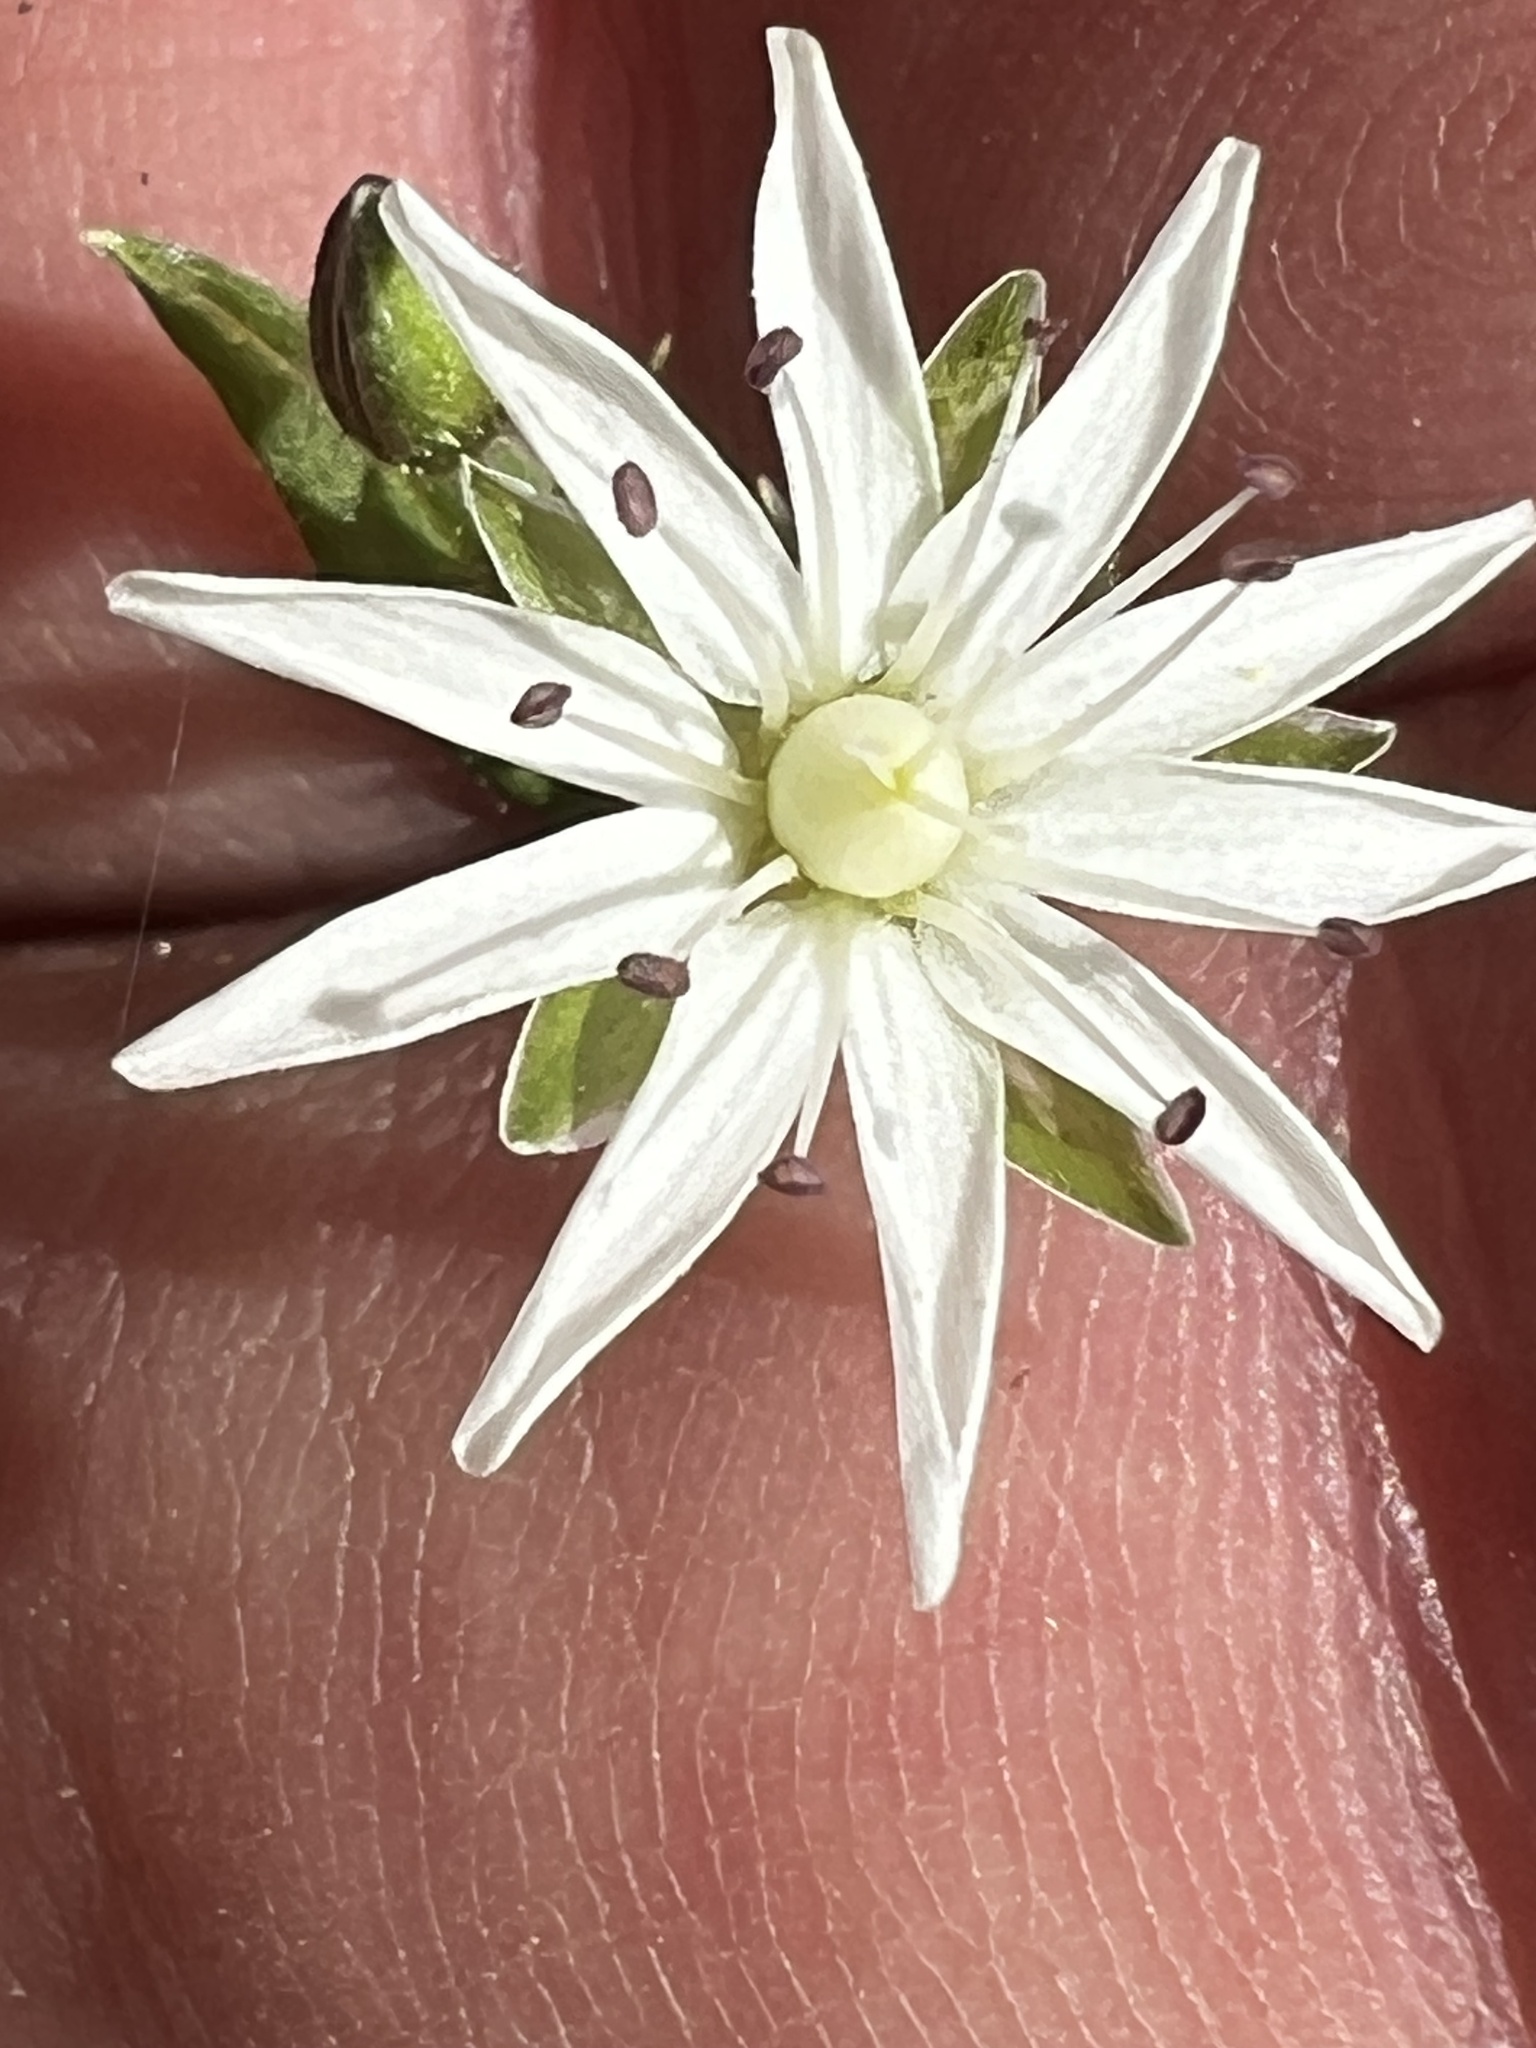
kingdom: Plantae
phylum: Tracheophyta
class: Magnoliopsida
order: Caryophyllales
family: Caryophyllaceae
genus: Stellaria
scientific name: Stellaria pubera
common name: Star chickweed
